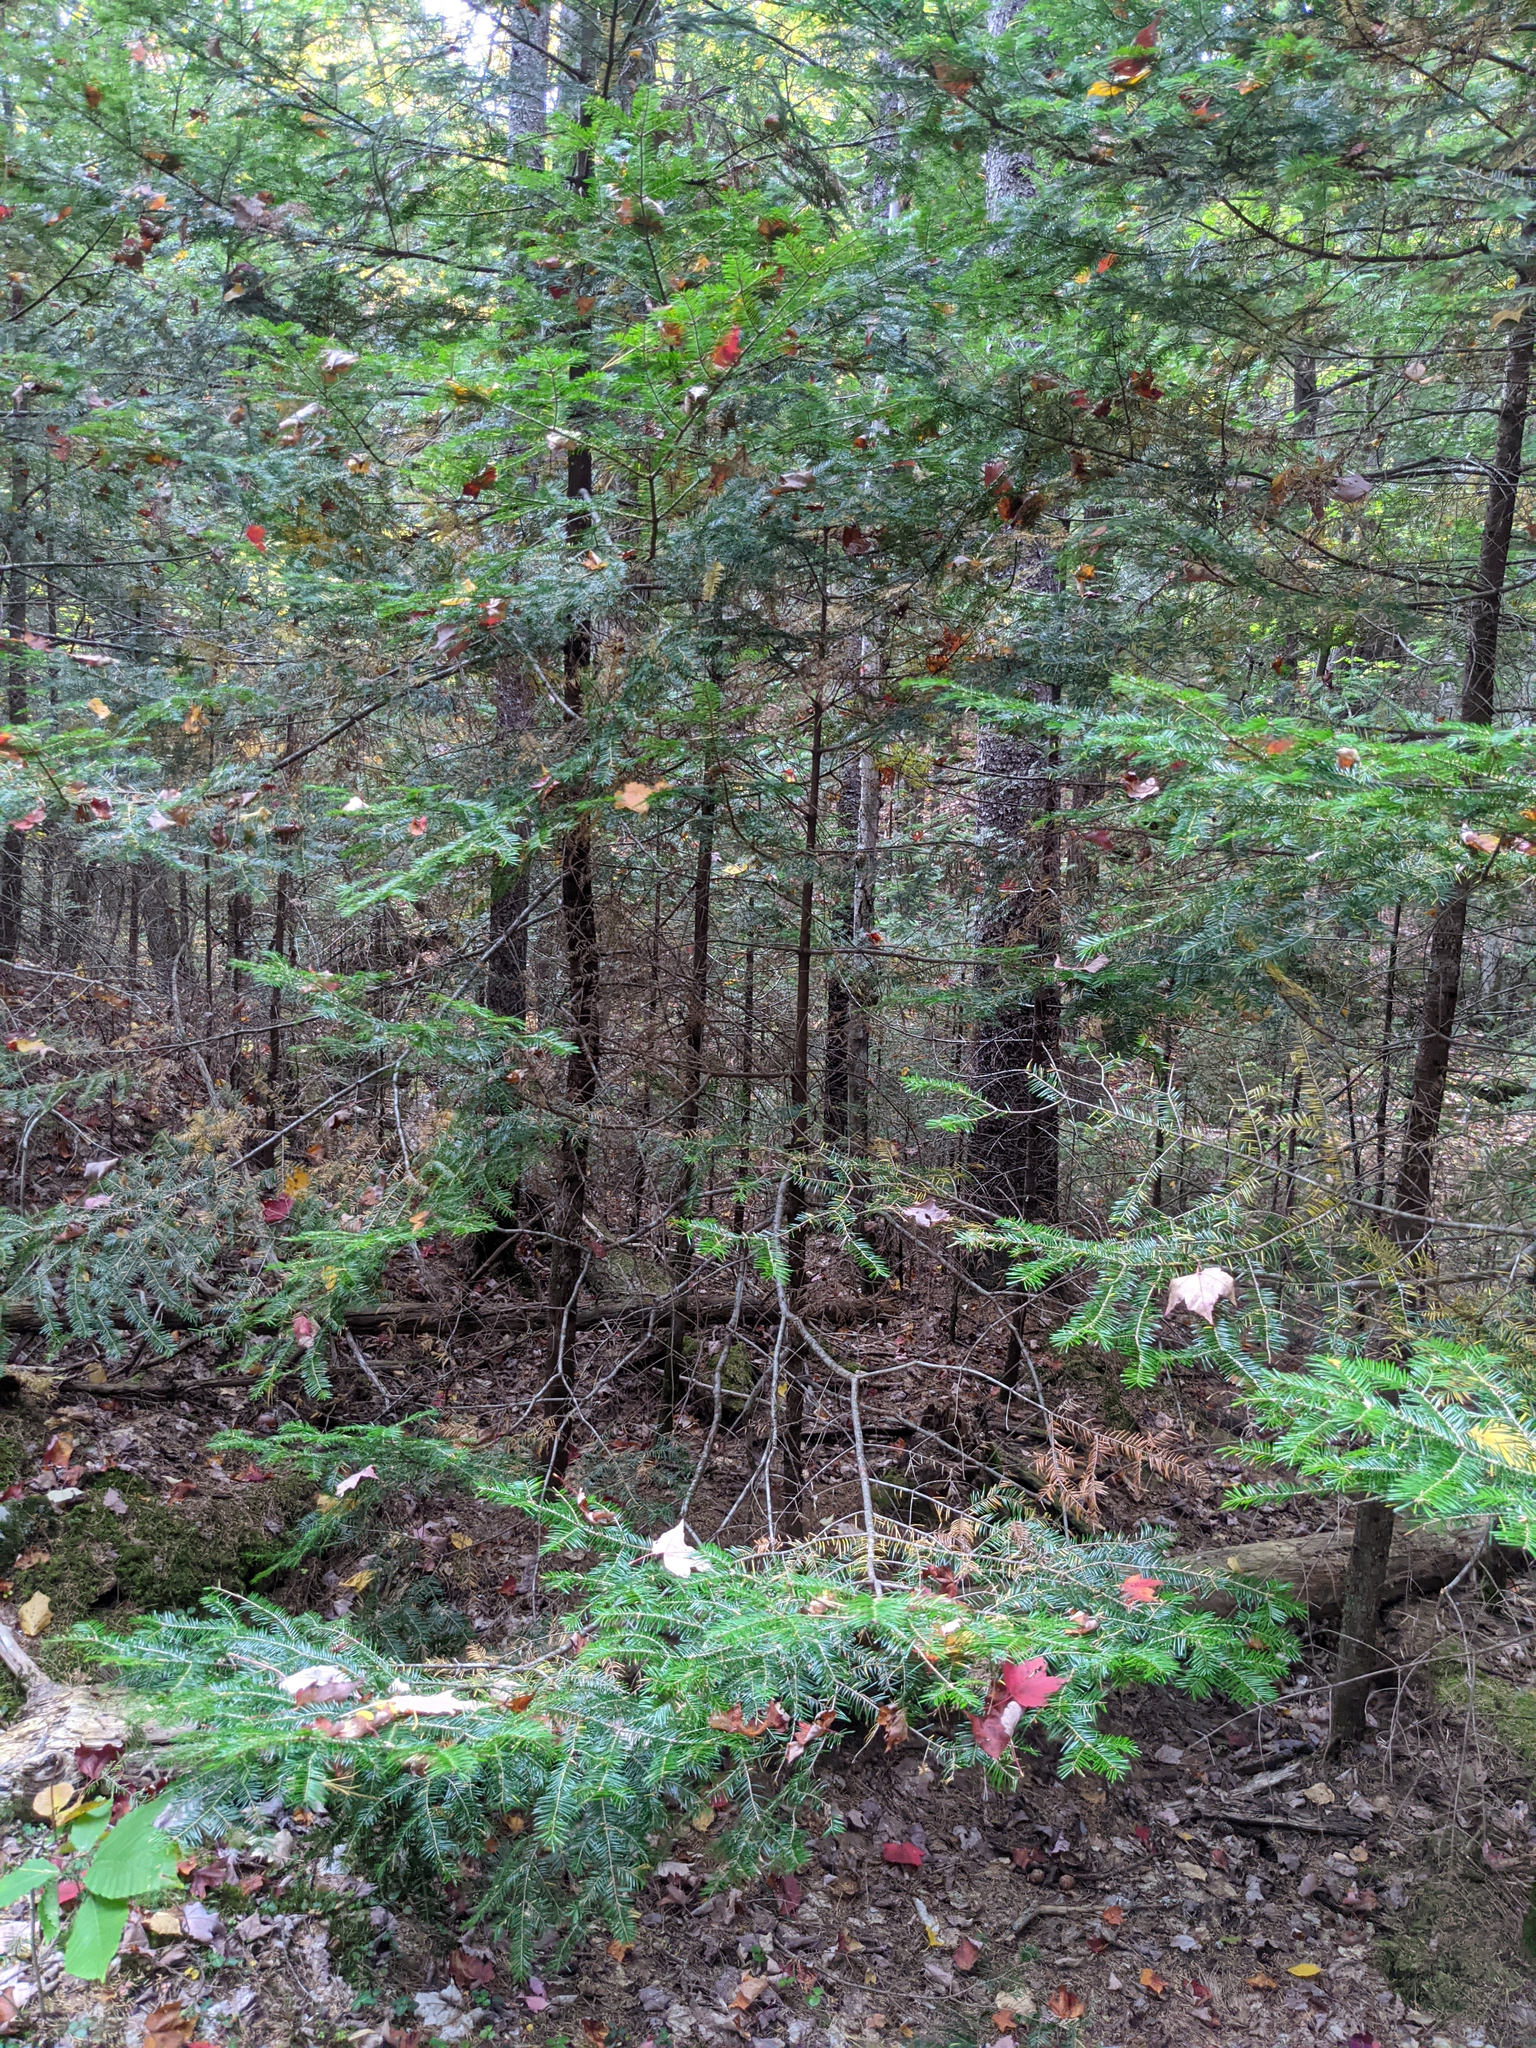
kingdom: Plantae
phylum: Tracheophyta
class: Pinopsida
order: Pinales
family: Pinaceae
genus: Abies
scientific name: Abies balsamea
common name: Balsam fir
